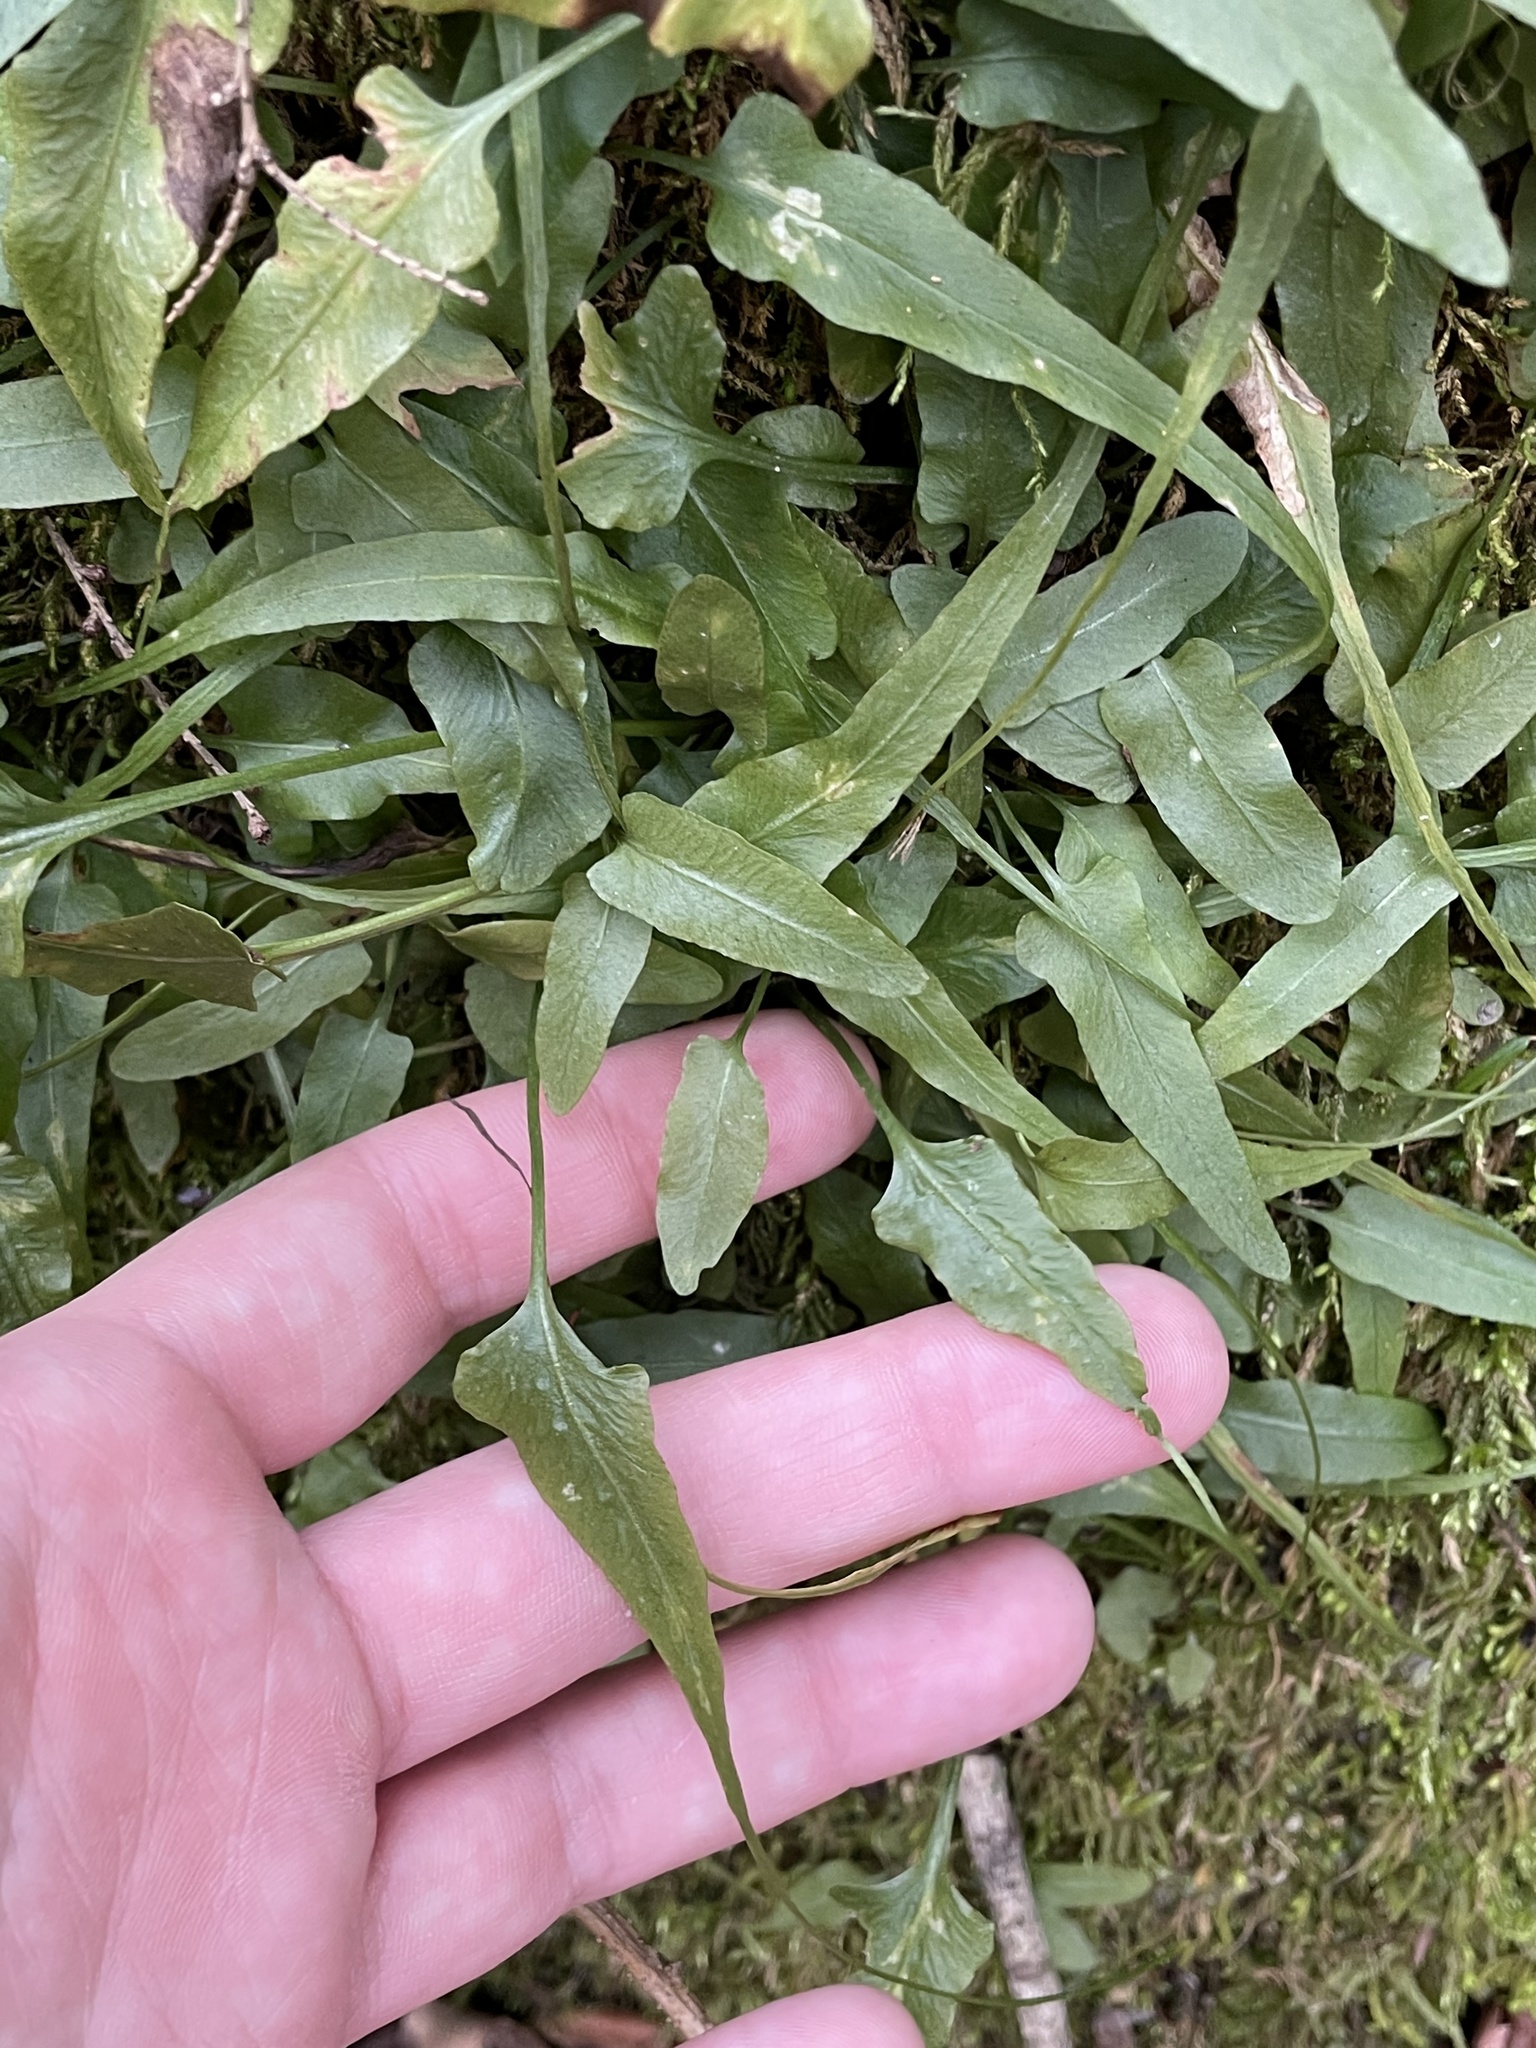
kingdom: Plantae
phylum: Tracheophyta
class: Polypodiopsida
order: Polypodiales
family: Aspleniaceae
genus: Asplenium
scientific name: Asplenium rhizophyllum
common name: Walking fern
